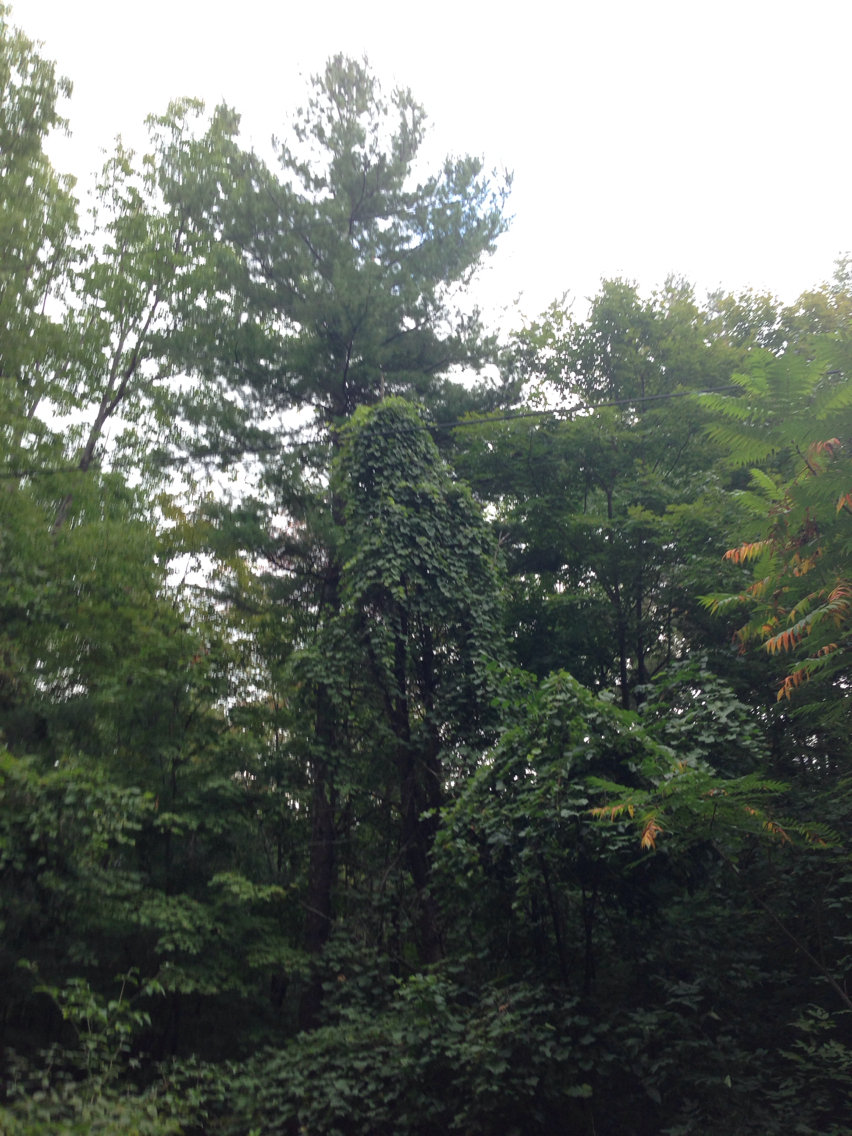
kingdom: Plantae
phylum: Tracheophyta
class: Pinopsida
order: Pinales
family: Pinaceae
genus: Pinus
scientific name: Pinus strobus
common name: Weymouth pine
